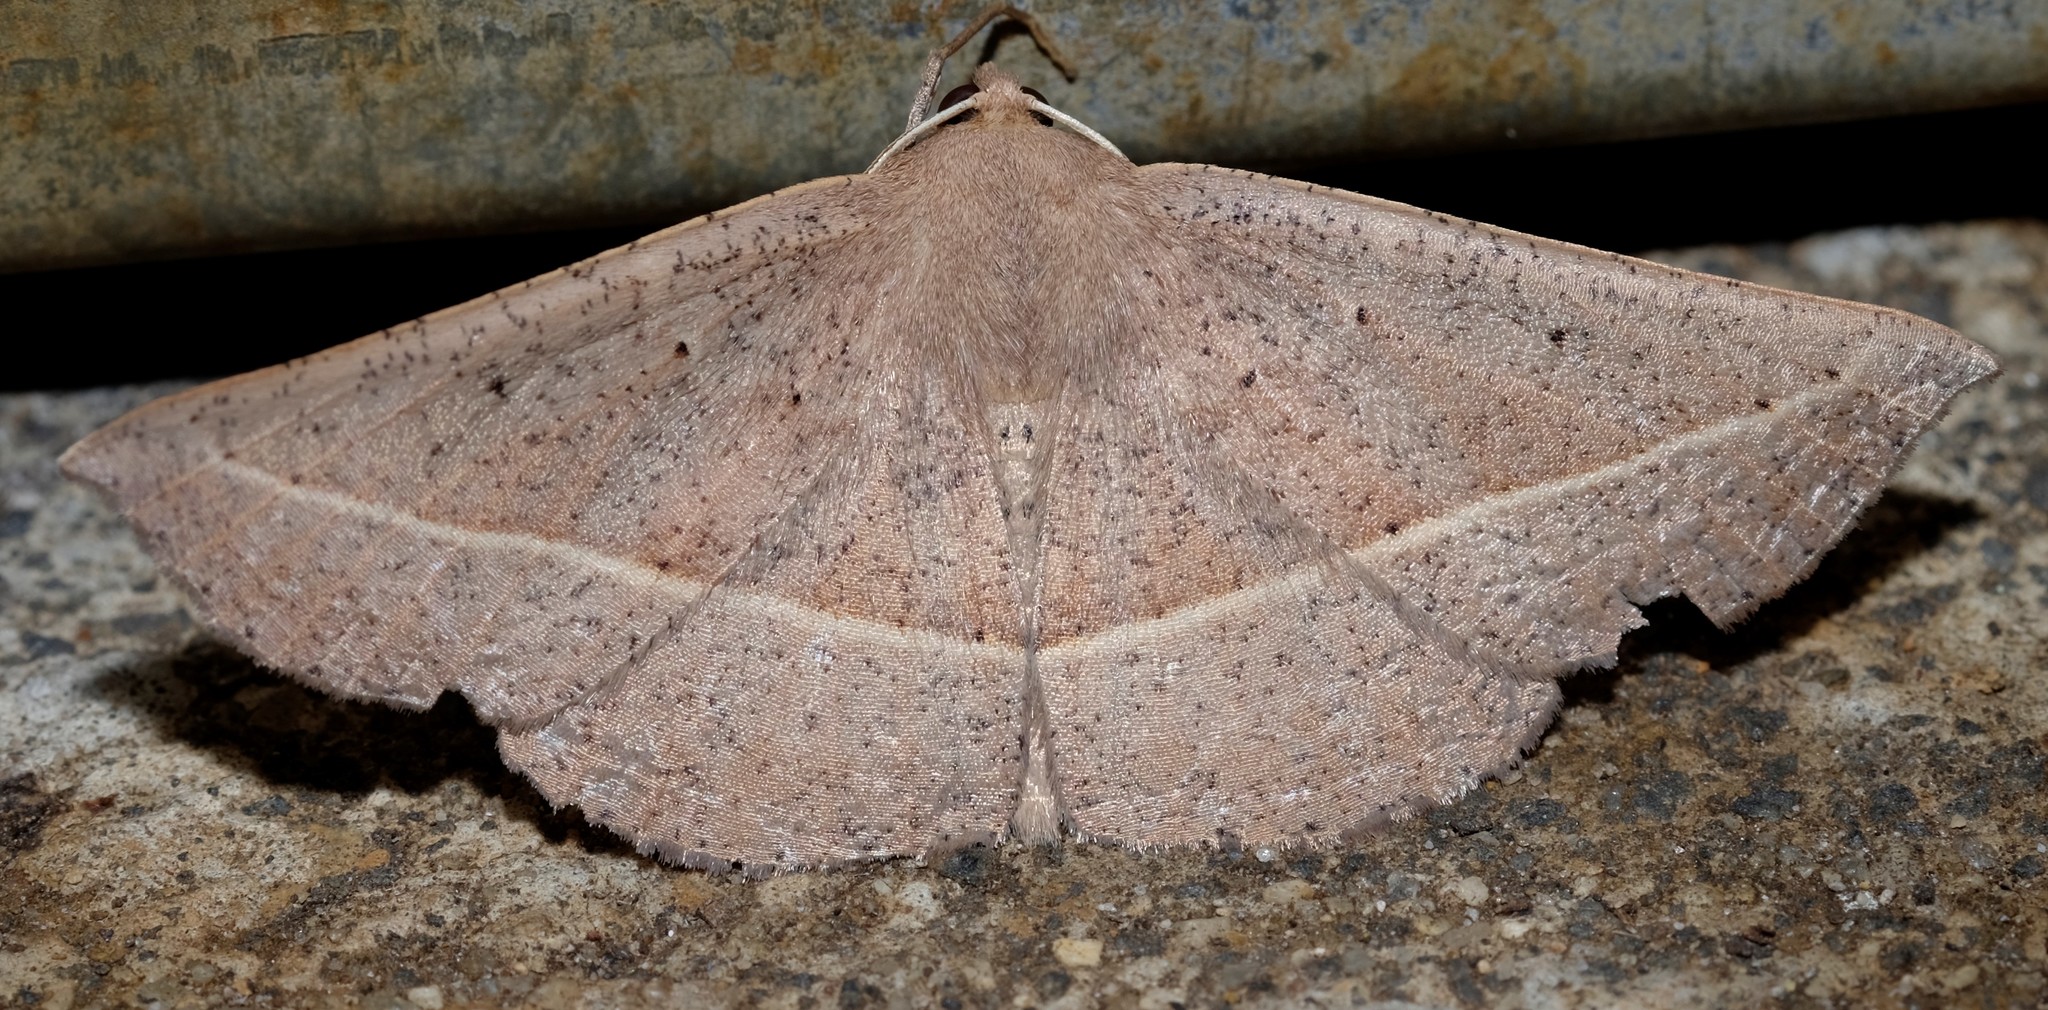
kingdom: Animalia
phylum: Arthropoda
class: Insecta
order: Lepidoptera
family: Geometridae
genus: Idiodes
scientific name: Idiodes apicata
